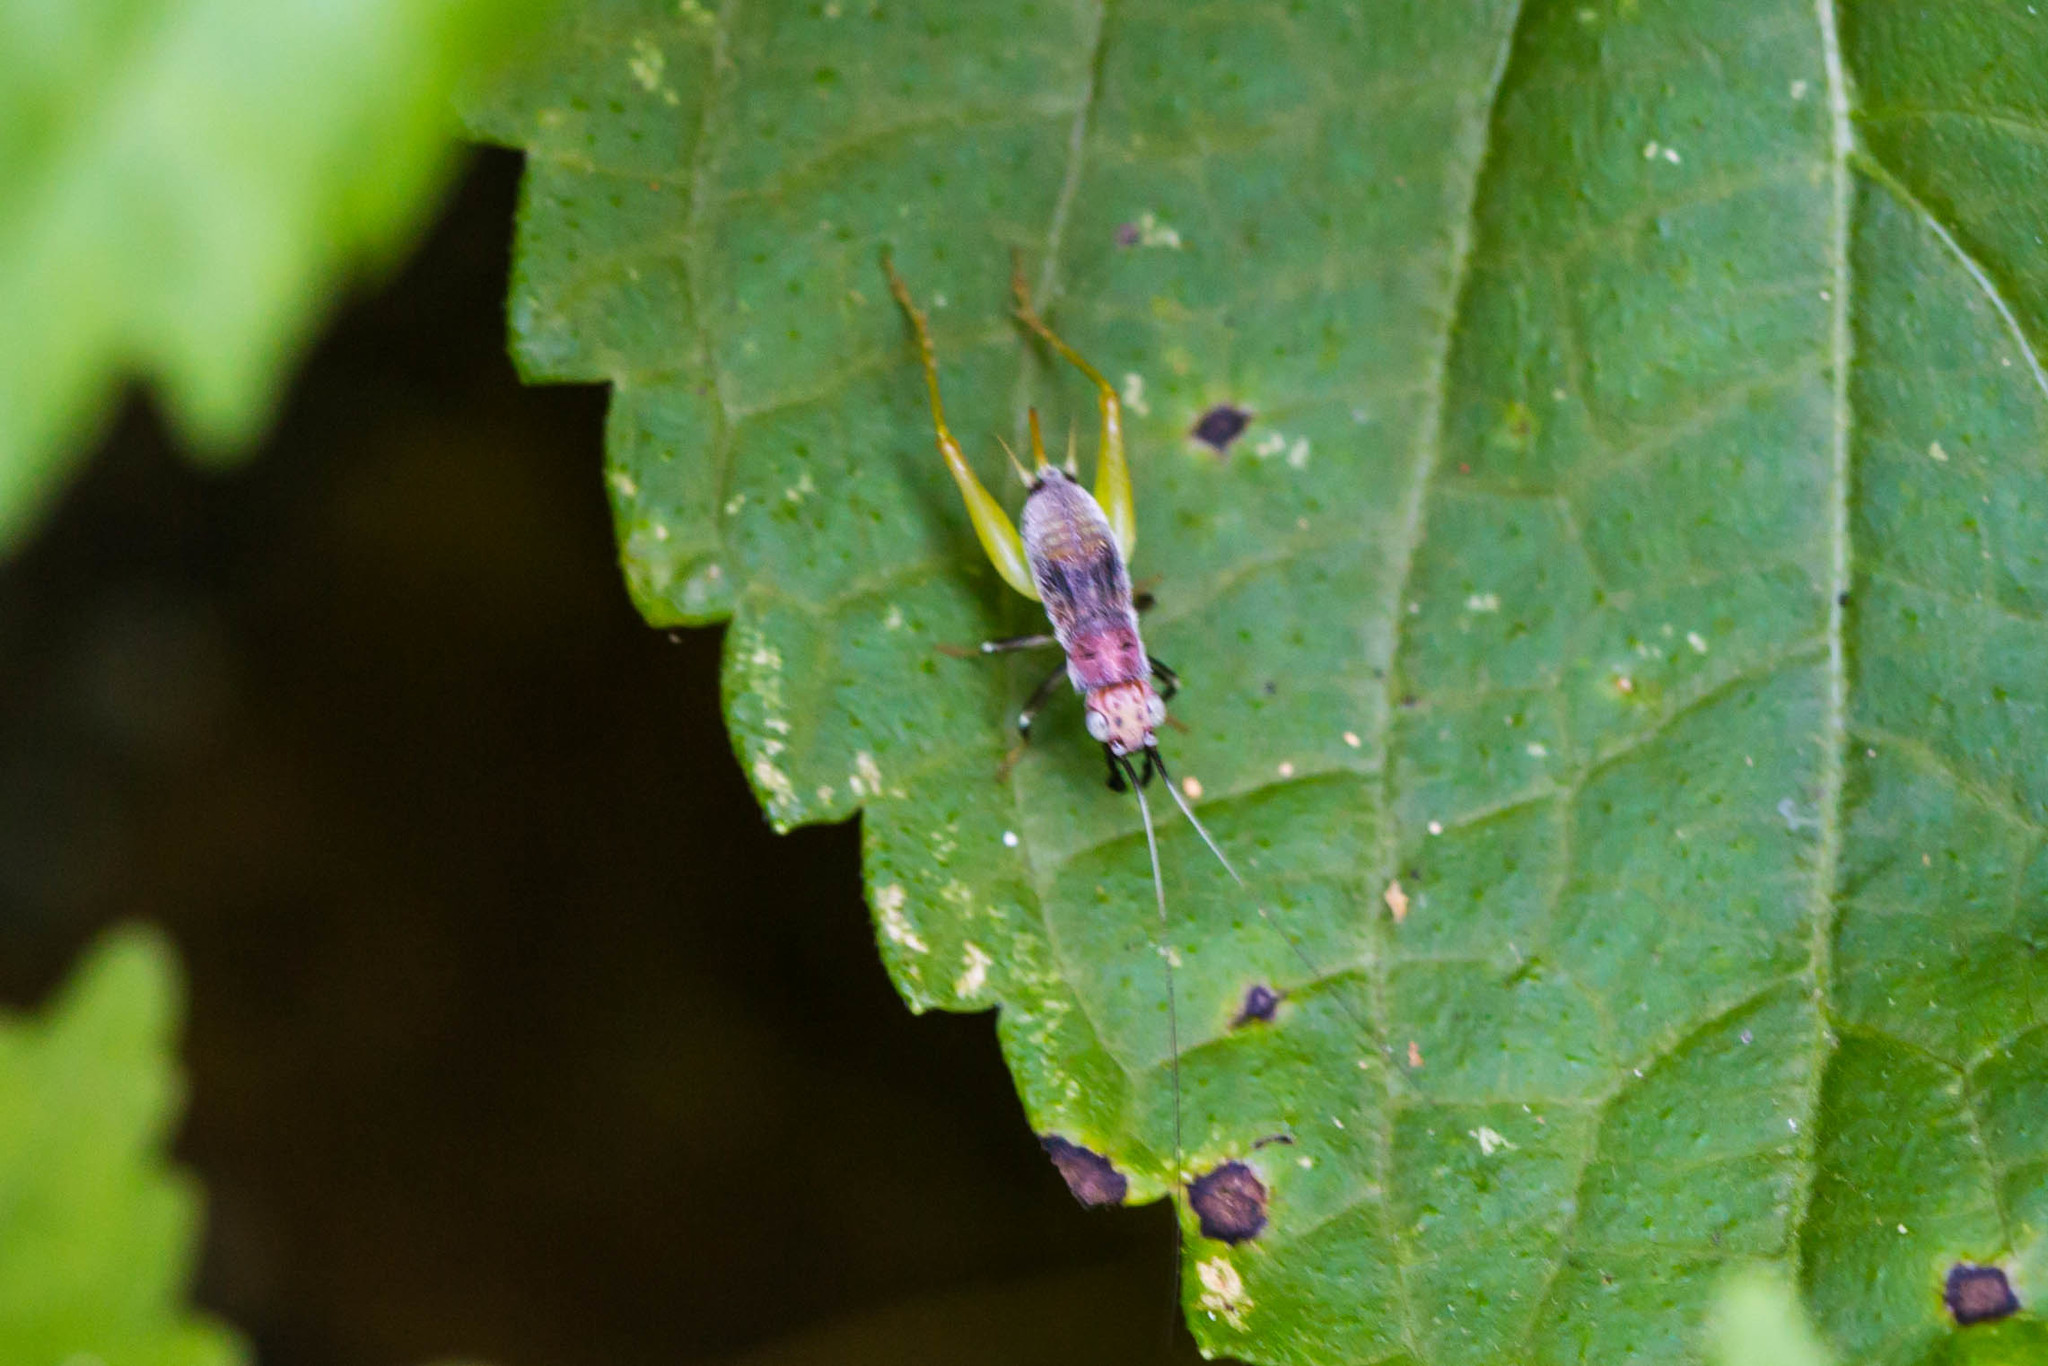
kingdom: Animalia
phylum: Arthropoda
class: Insecta
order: Orthoptera
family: Trigonidiidae
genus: Phyllopalpus
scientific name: Phyllopalpus pulchellus
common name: Handsome trig
